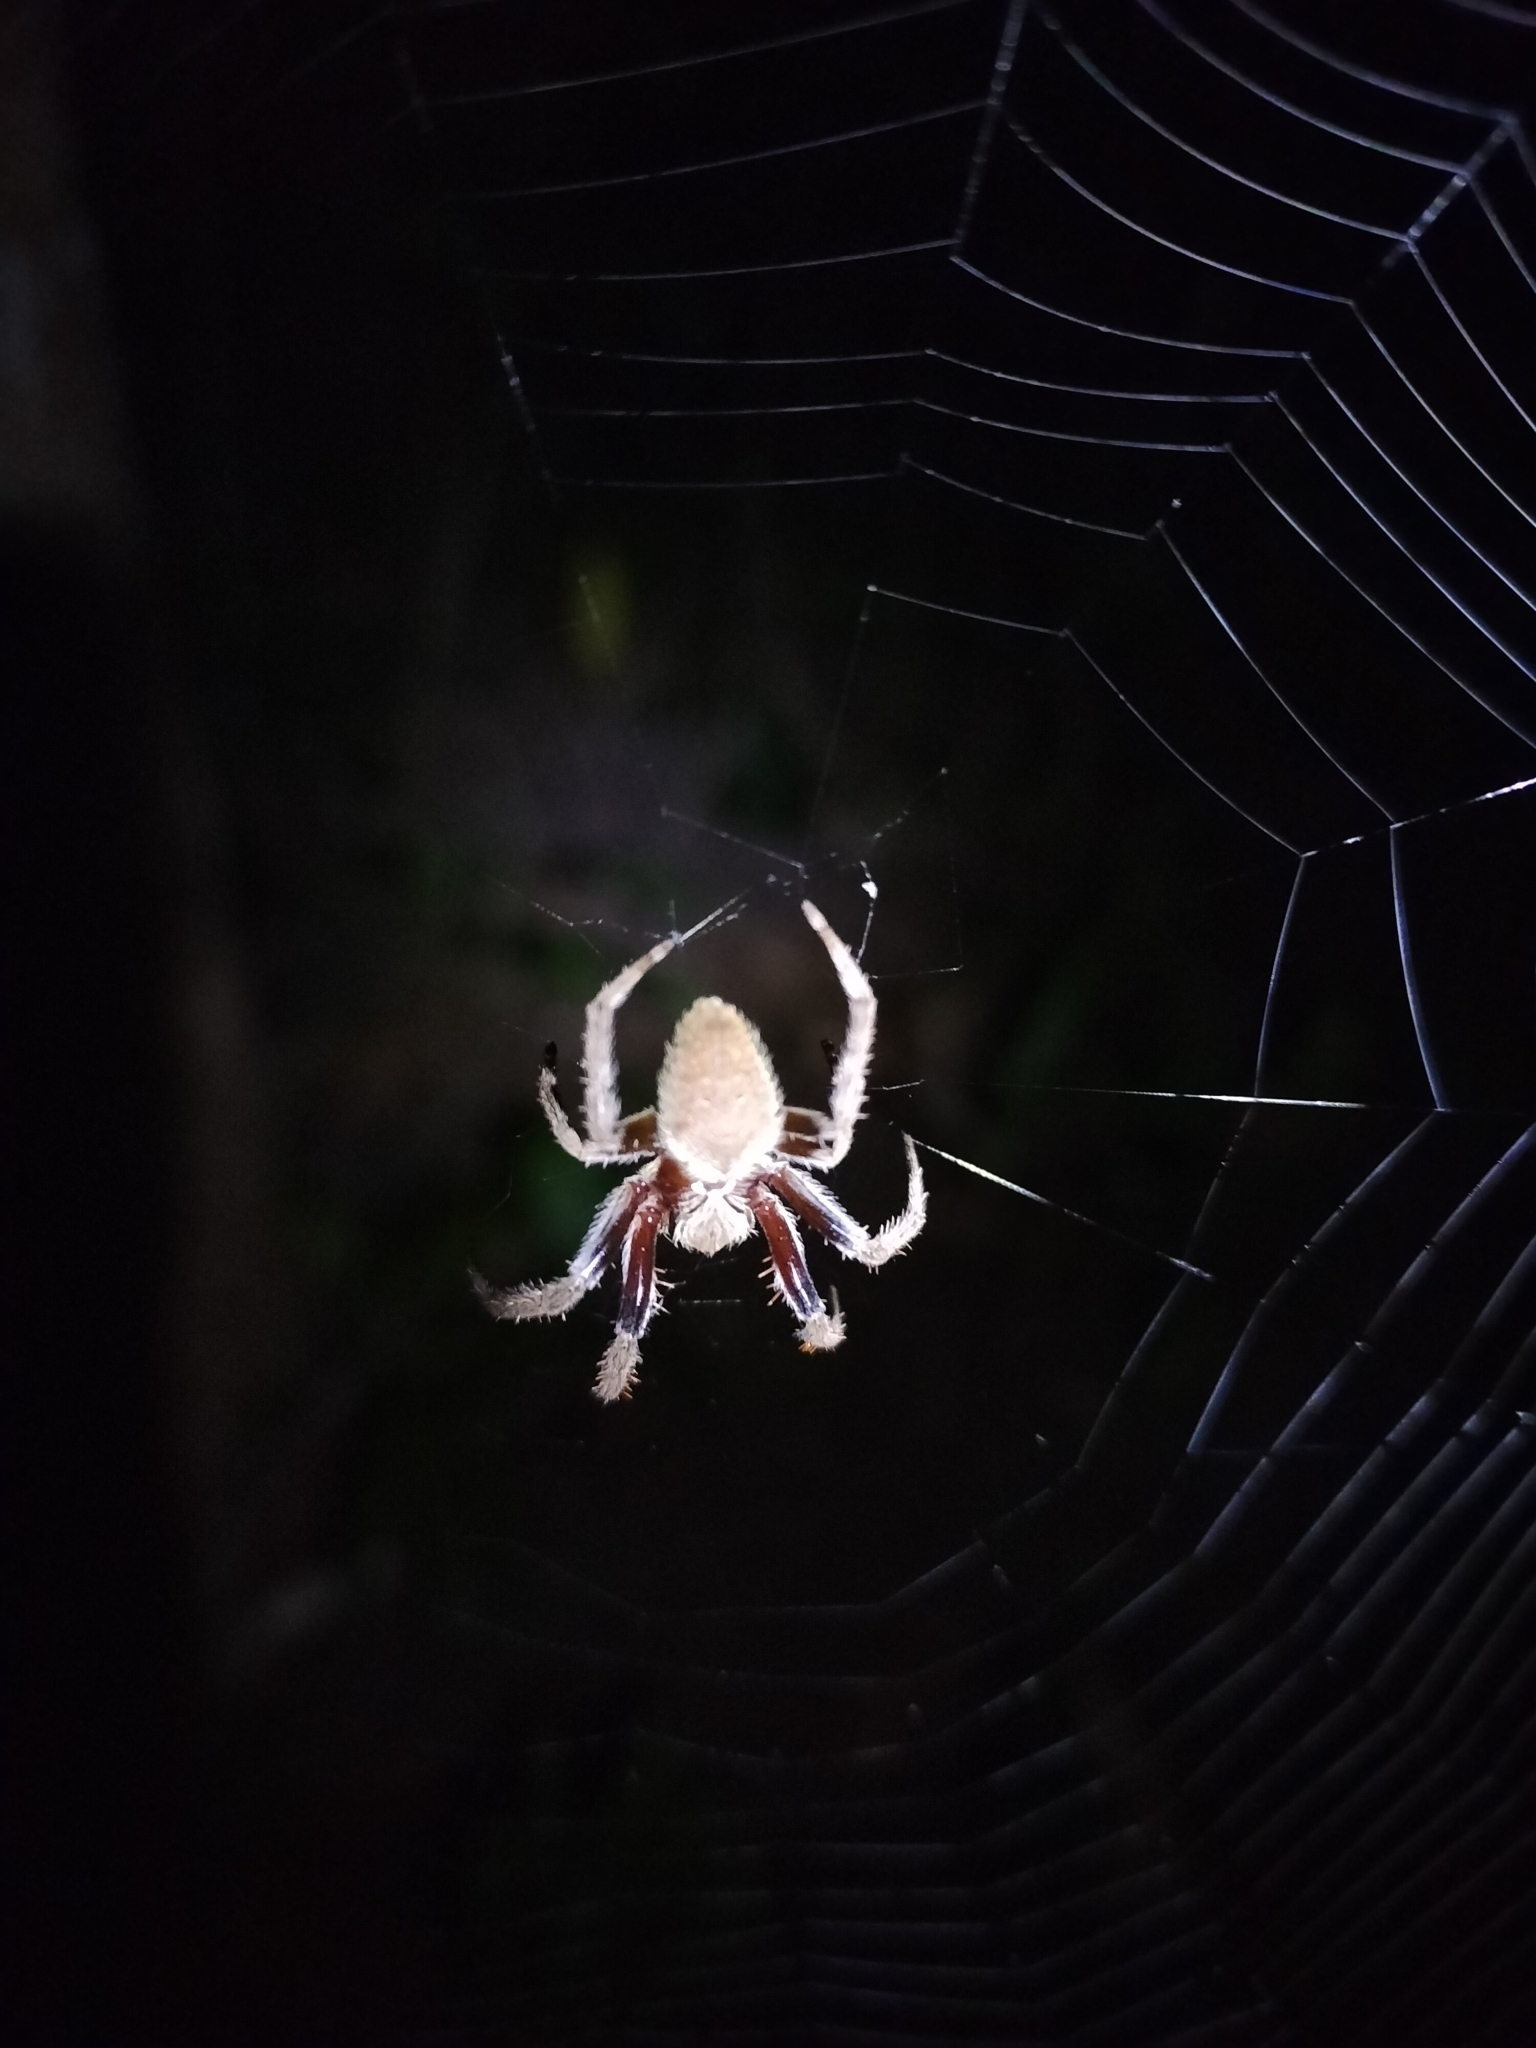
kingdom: Animalia
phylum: Arthropoda
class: Arachnida
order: Araneae
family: Araneidae
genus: Hortophora
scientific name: Hortophora transmarina
